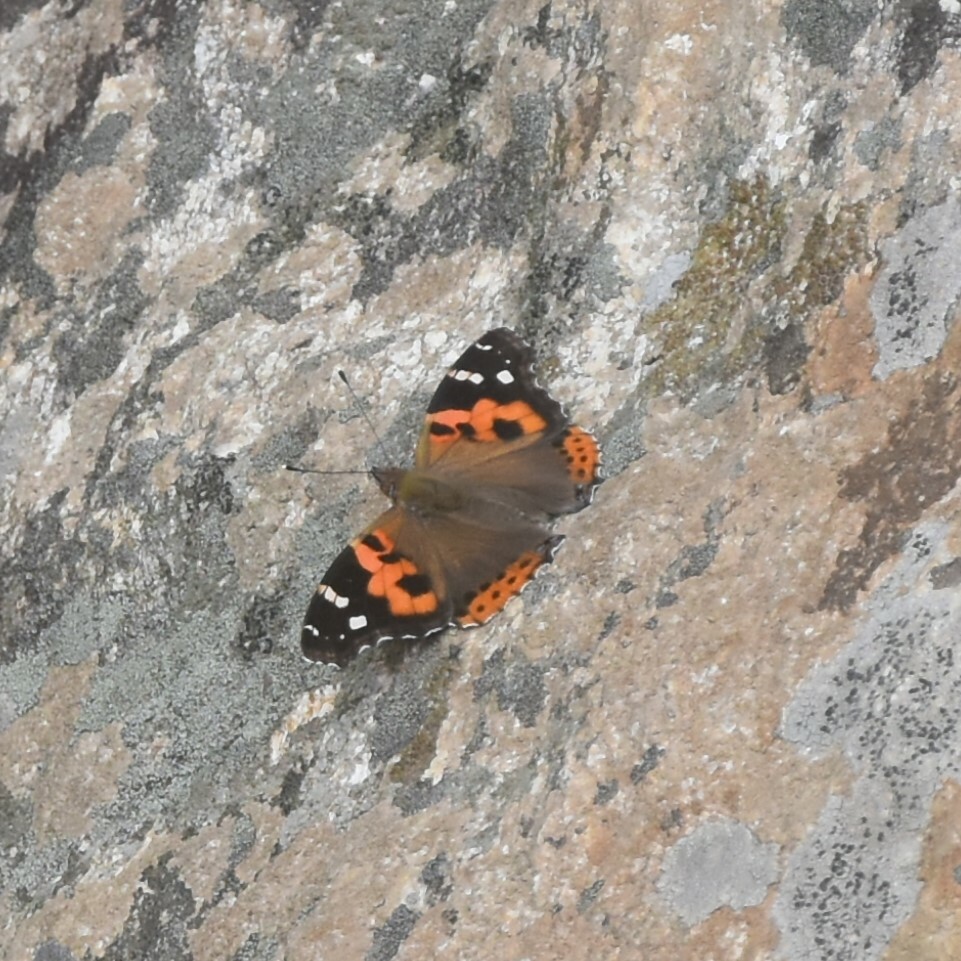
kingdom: Animalia
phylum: Arthropoda
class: Insecta
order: Lepidoptera
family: Nymphalidae
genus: Vanessa
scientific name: Vanessa indica
